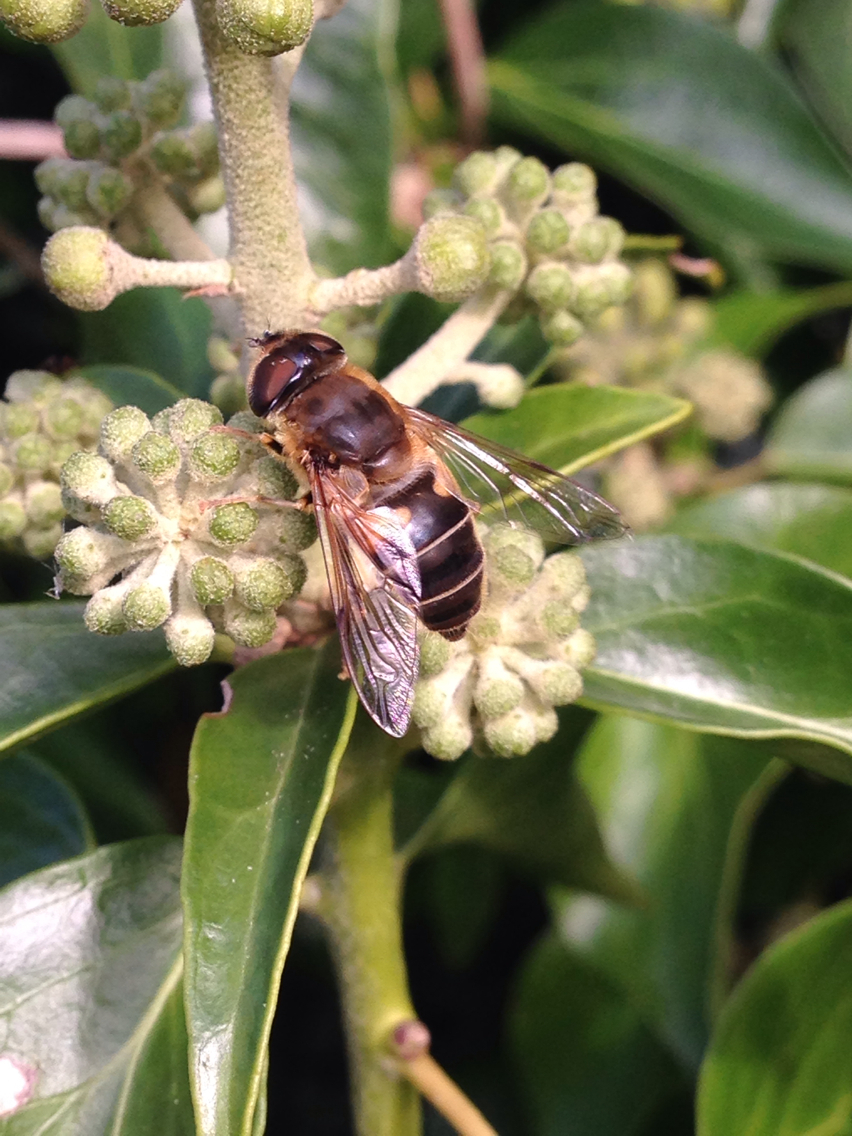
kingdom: Animalia
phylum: Arthropoda
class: Insecta
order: Diptera
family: Syrphidae
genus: Eristalis
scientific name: Eristalis pertinax
